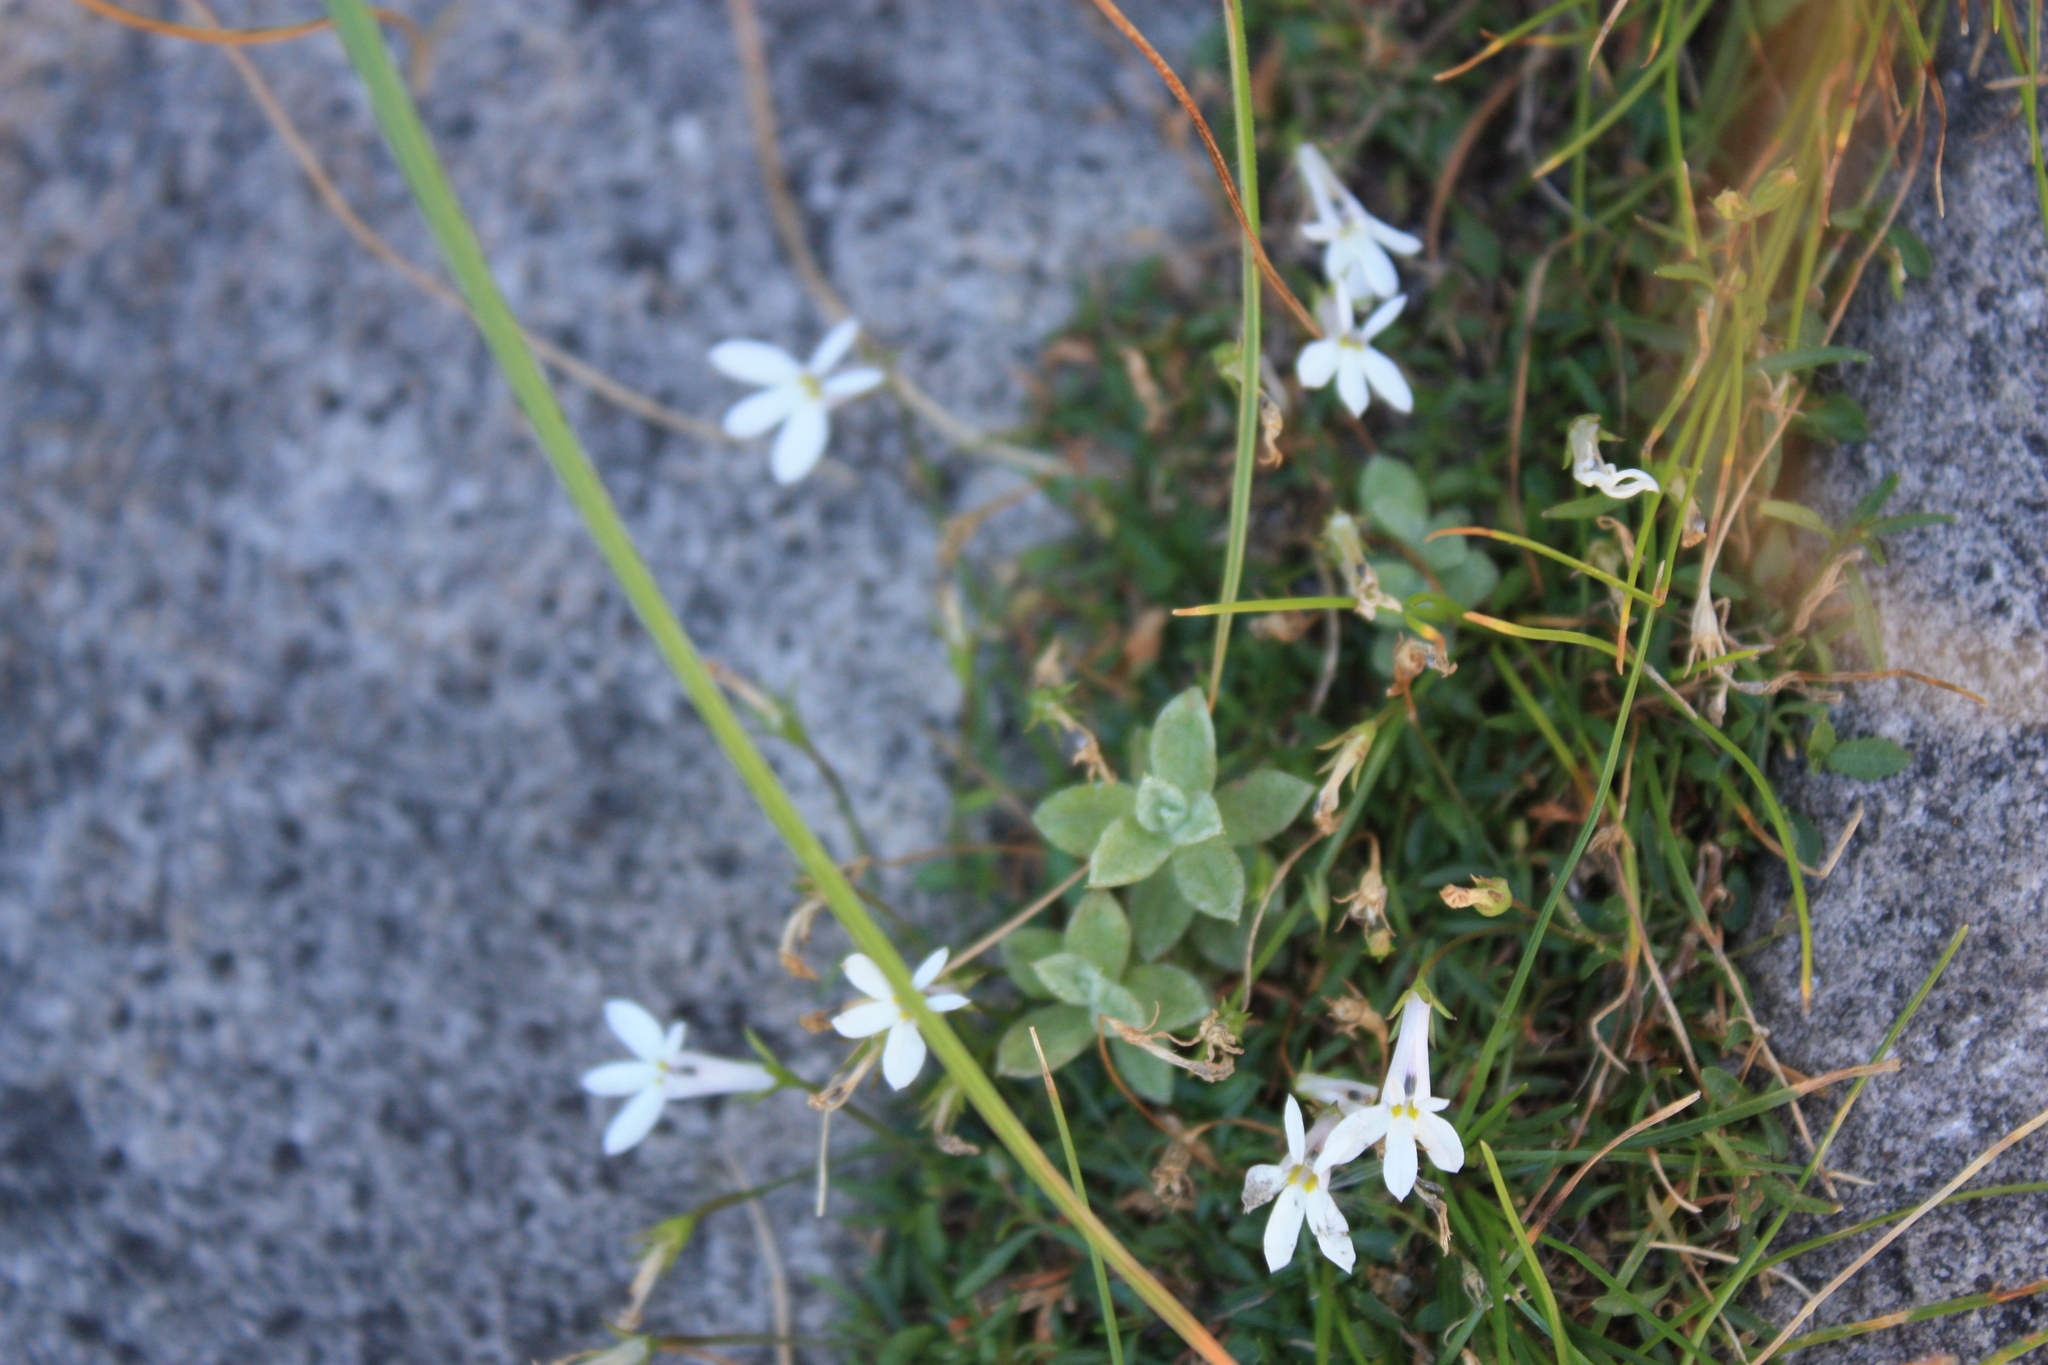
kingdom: Plantae
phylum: Tracheophyta
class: Magnoliopsida
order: Asterales
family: Campanulaceae
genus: Lobelia
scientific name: Lobelia pubescens
